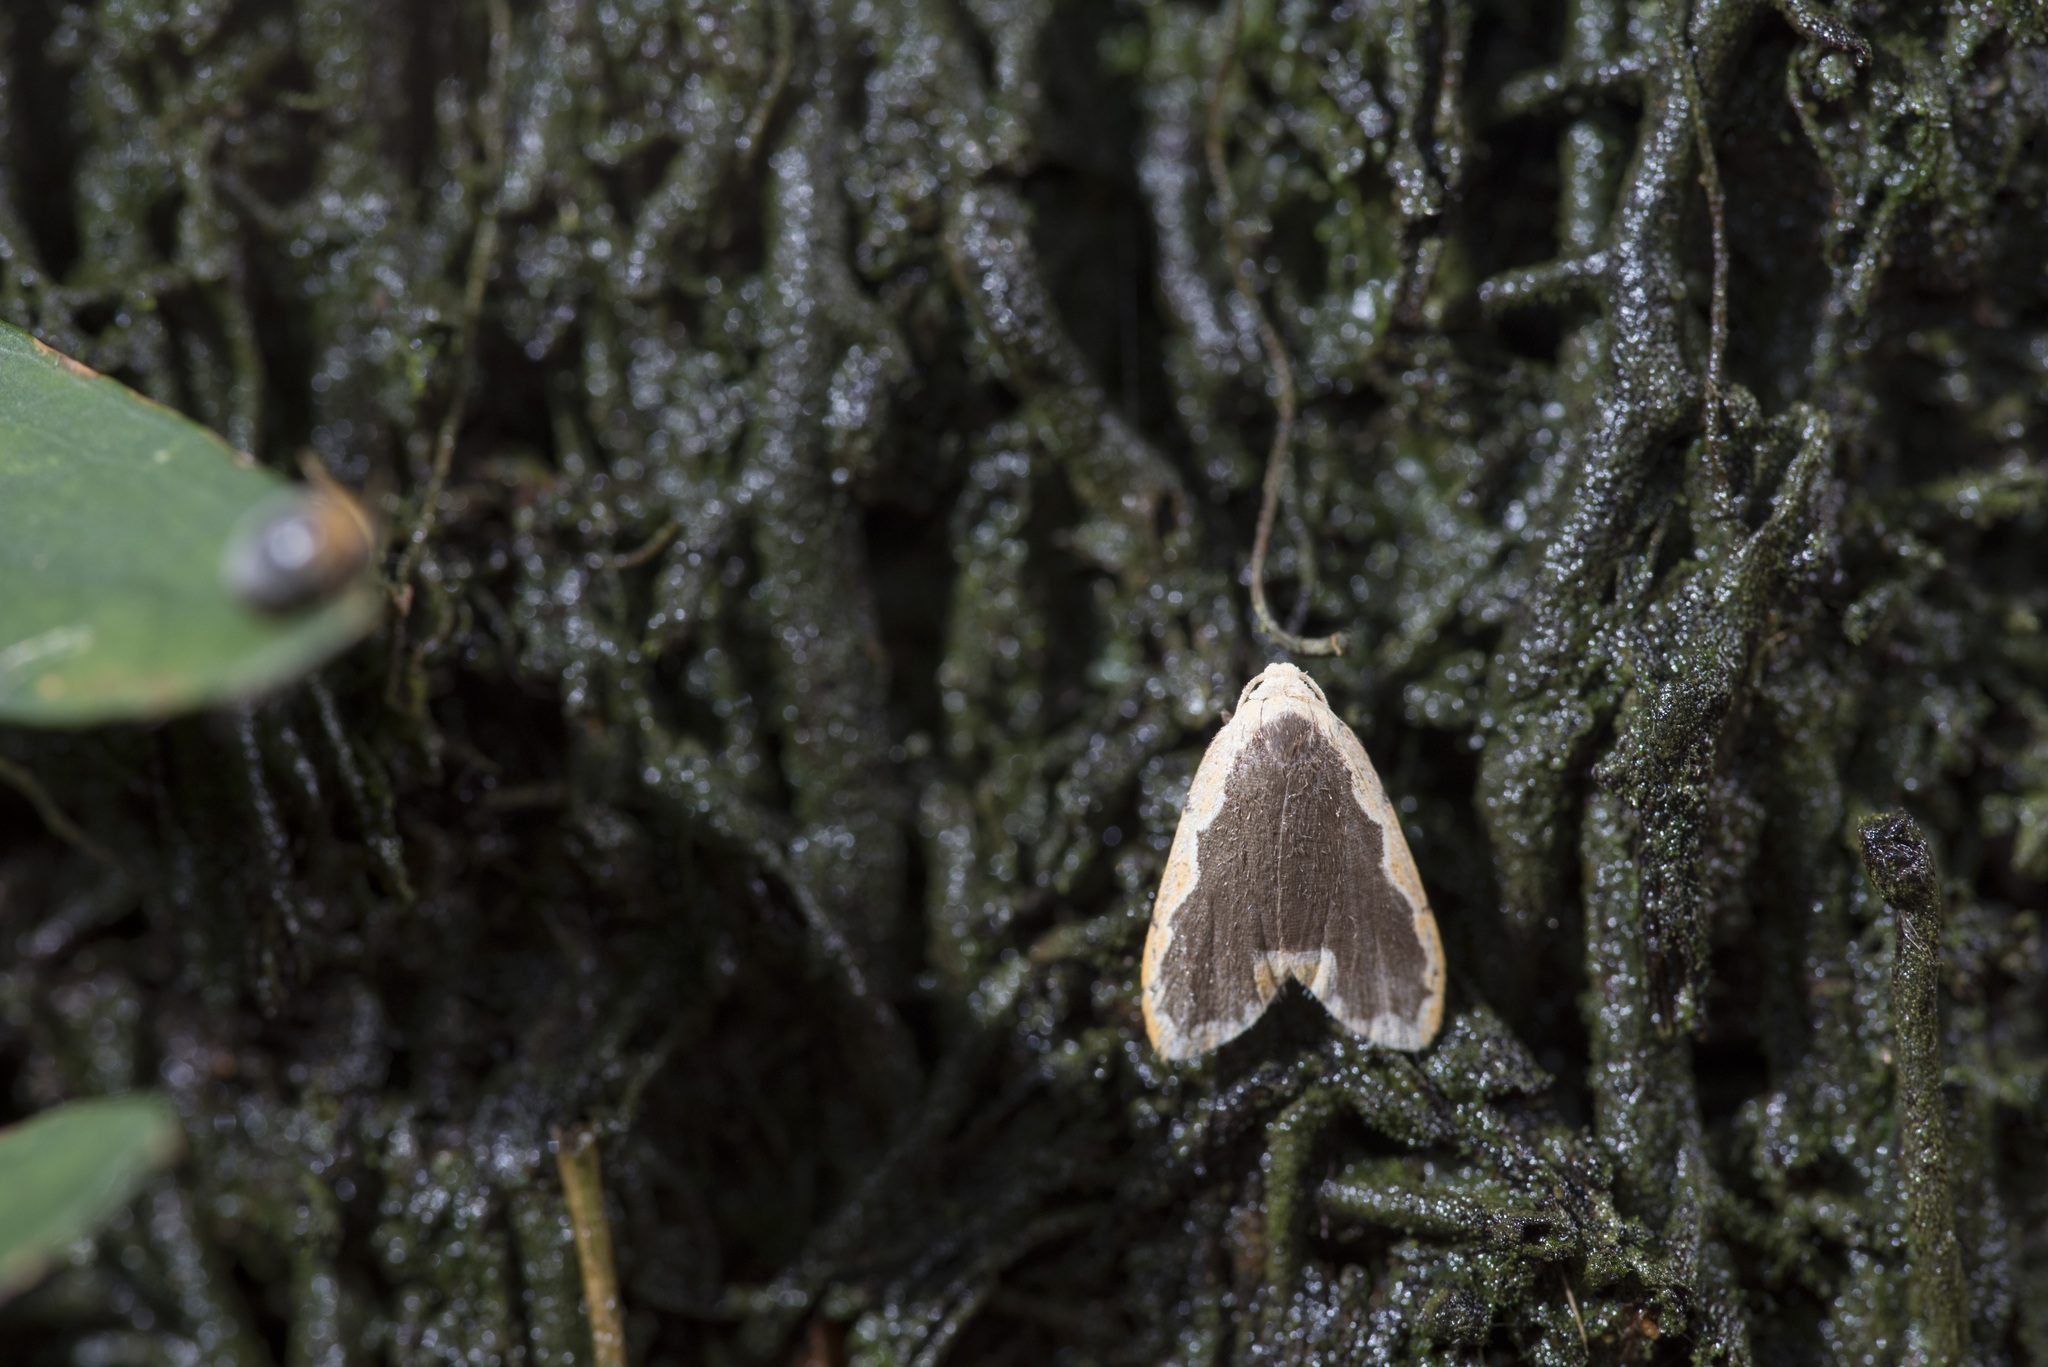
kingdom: Animalia
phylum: Arthropoda
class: Insecta
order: Lepidoptera
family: Erebidae
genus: Diduga
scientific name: Diduga nantouensis
